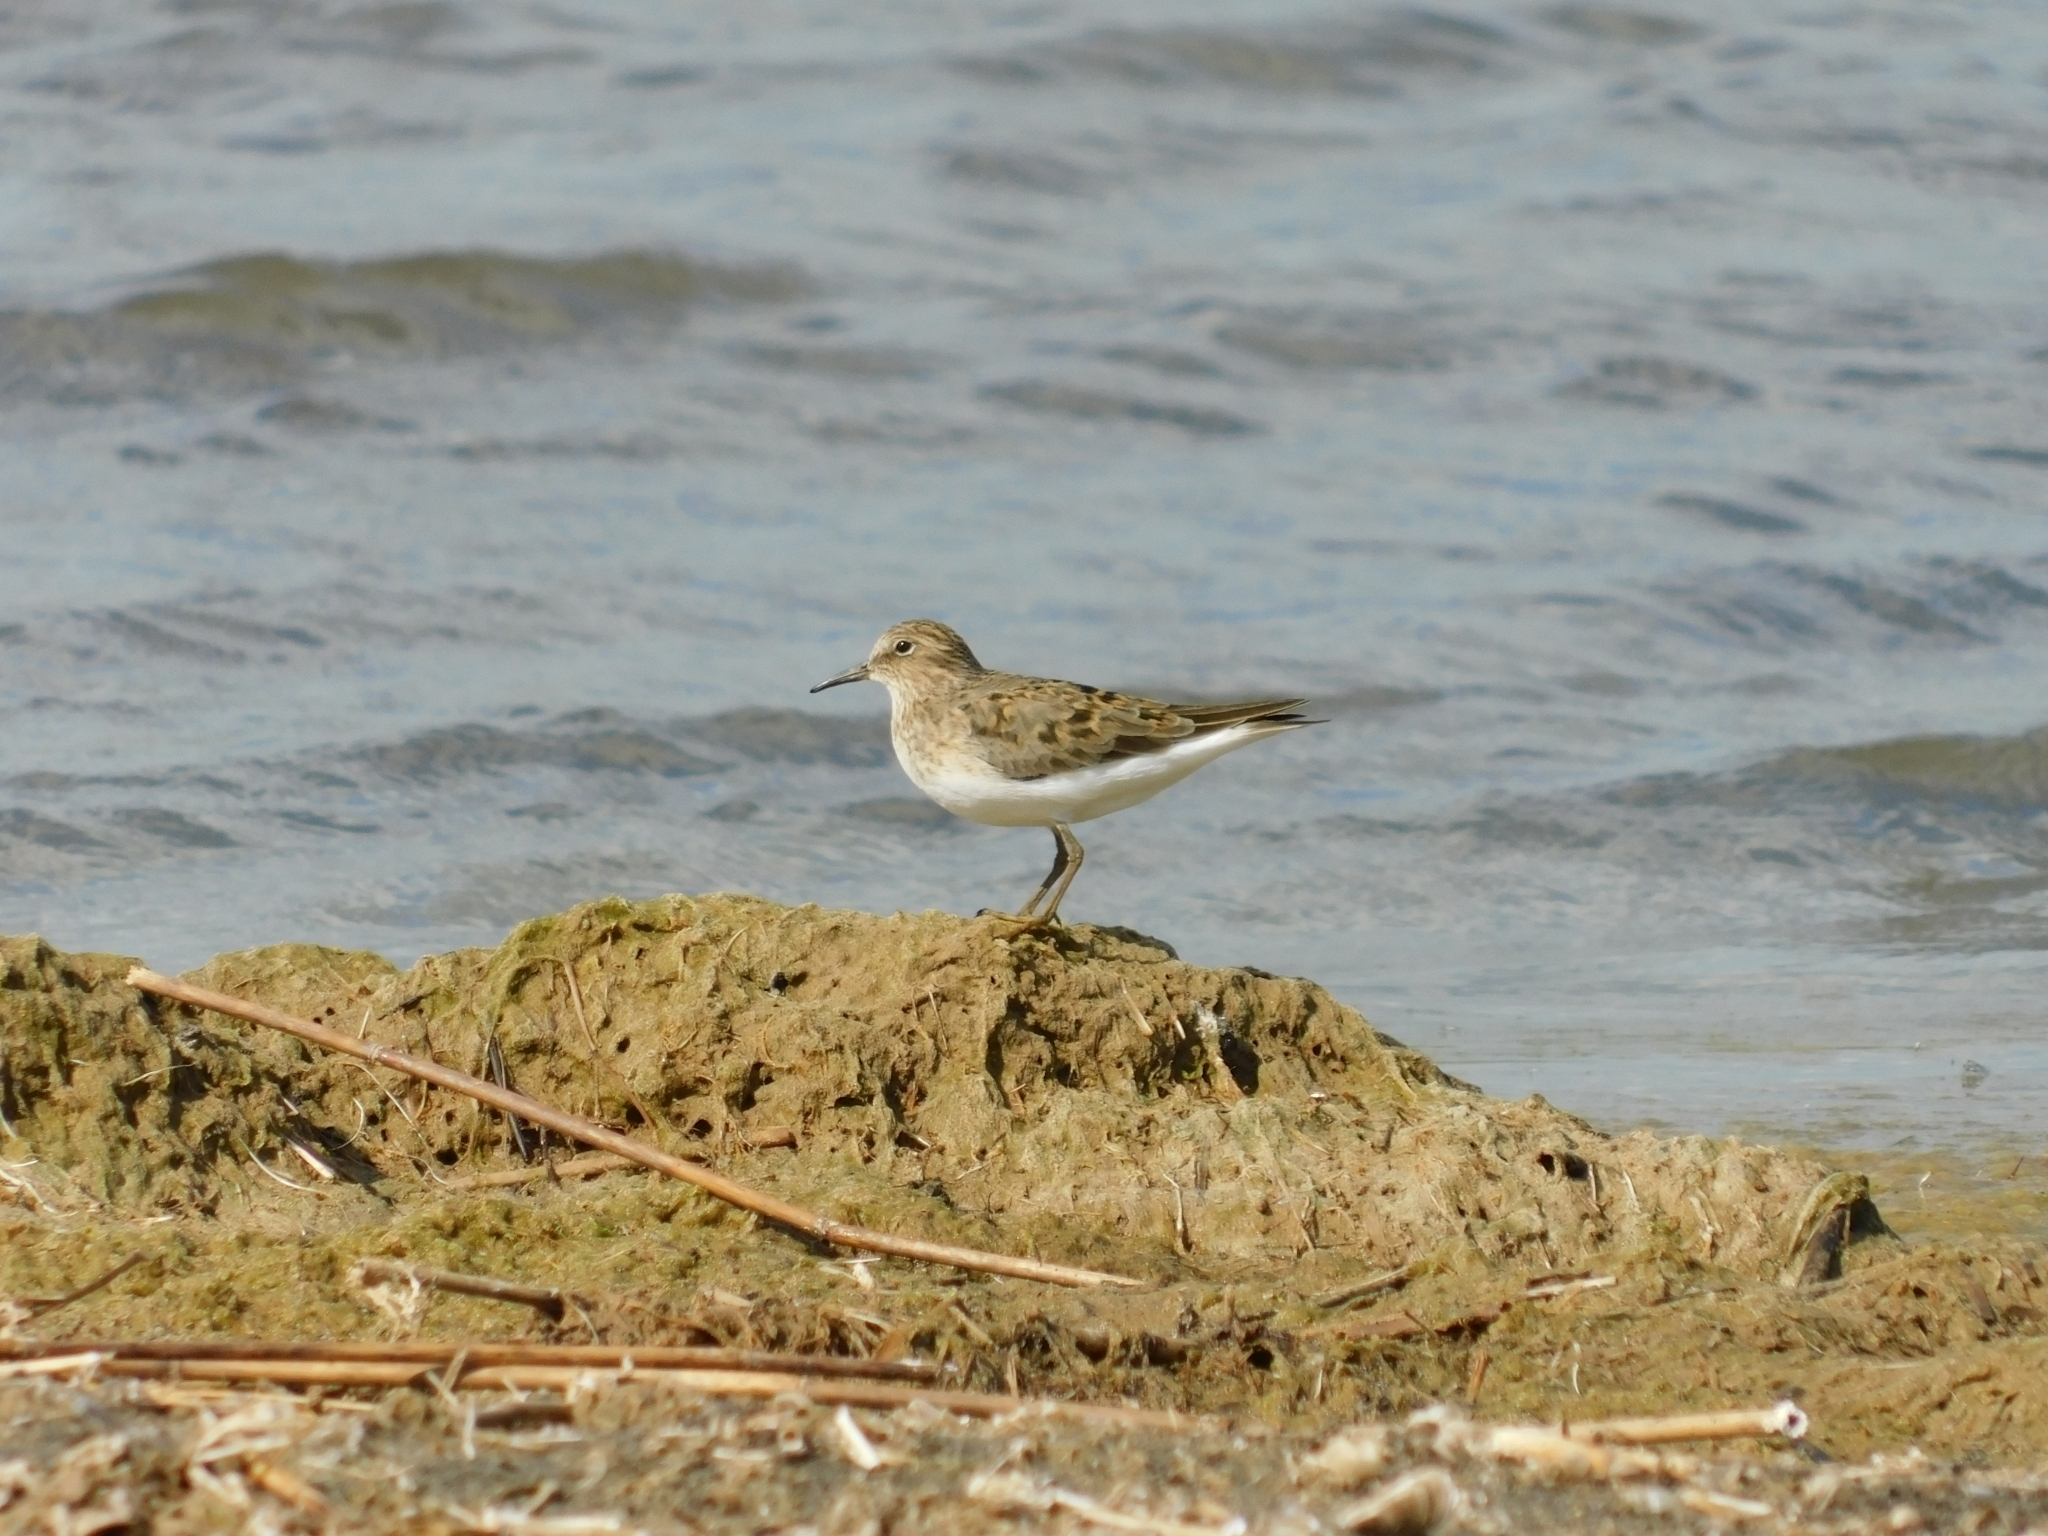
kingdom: Animalia
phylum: Chordata
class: Aves
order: Charadriiformes
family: Scolopacidae
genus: Calidris
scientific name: Calidris temminckii
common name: Temminck's stint
